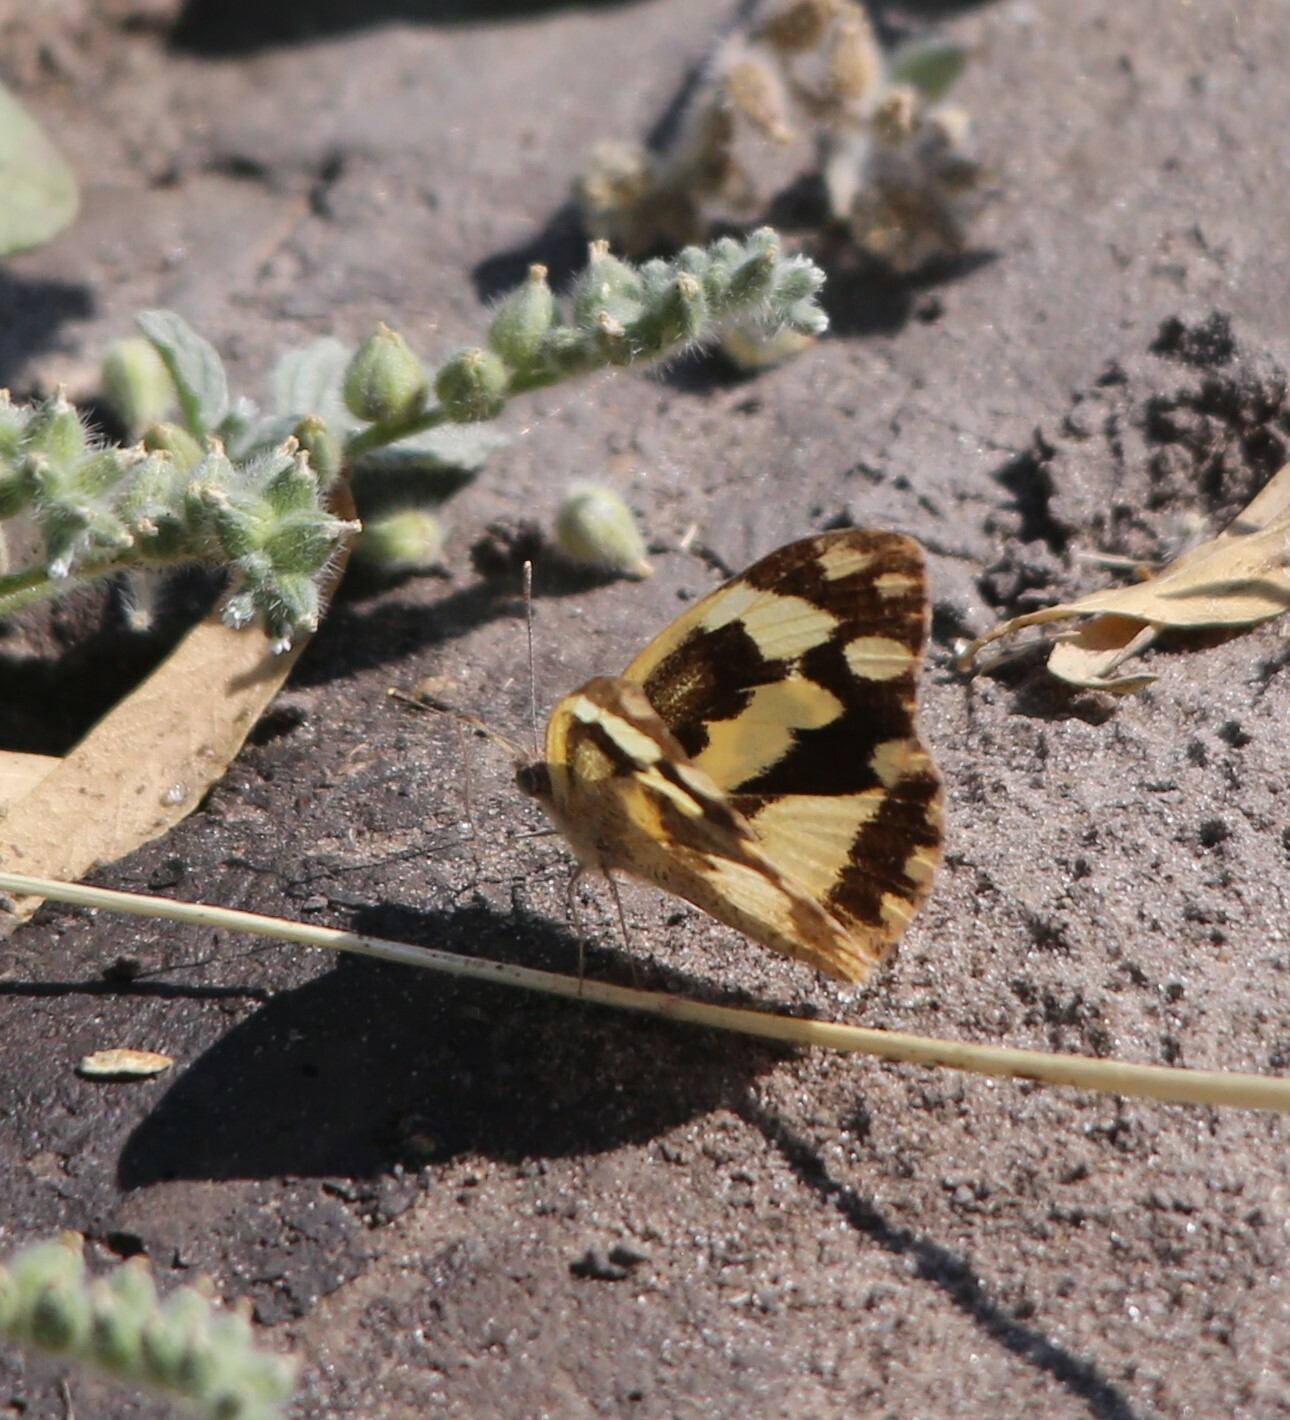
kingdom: Animalia
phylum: Arthropoda
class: Insecta
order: Lepidoptera
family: Pieridae
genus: Pinacopteryx
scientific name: Pinacopteryx eriphia
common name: Zebra white
